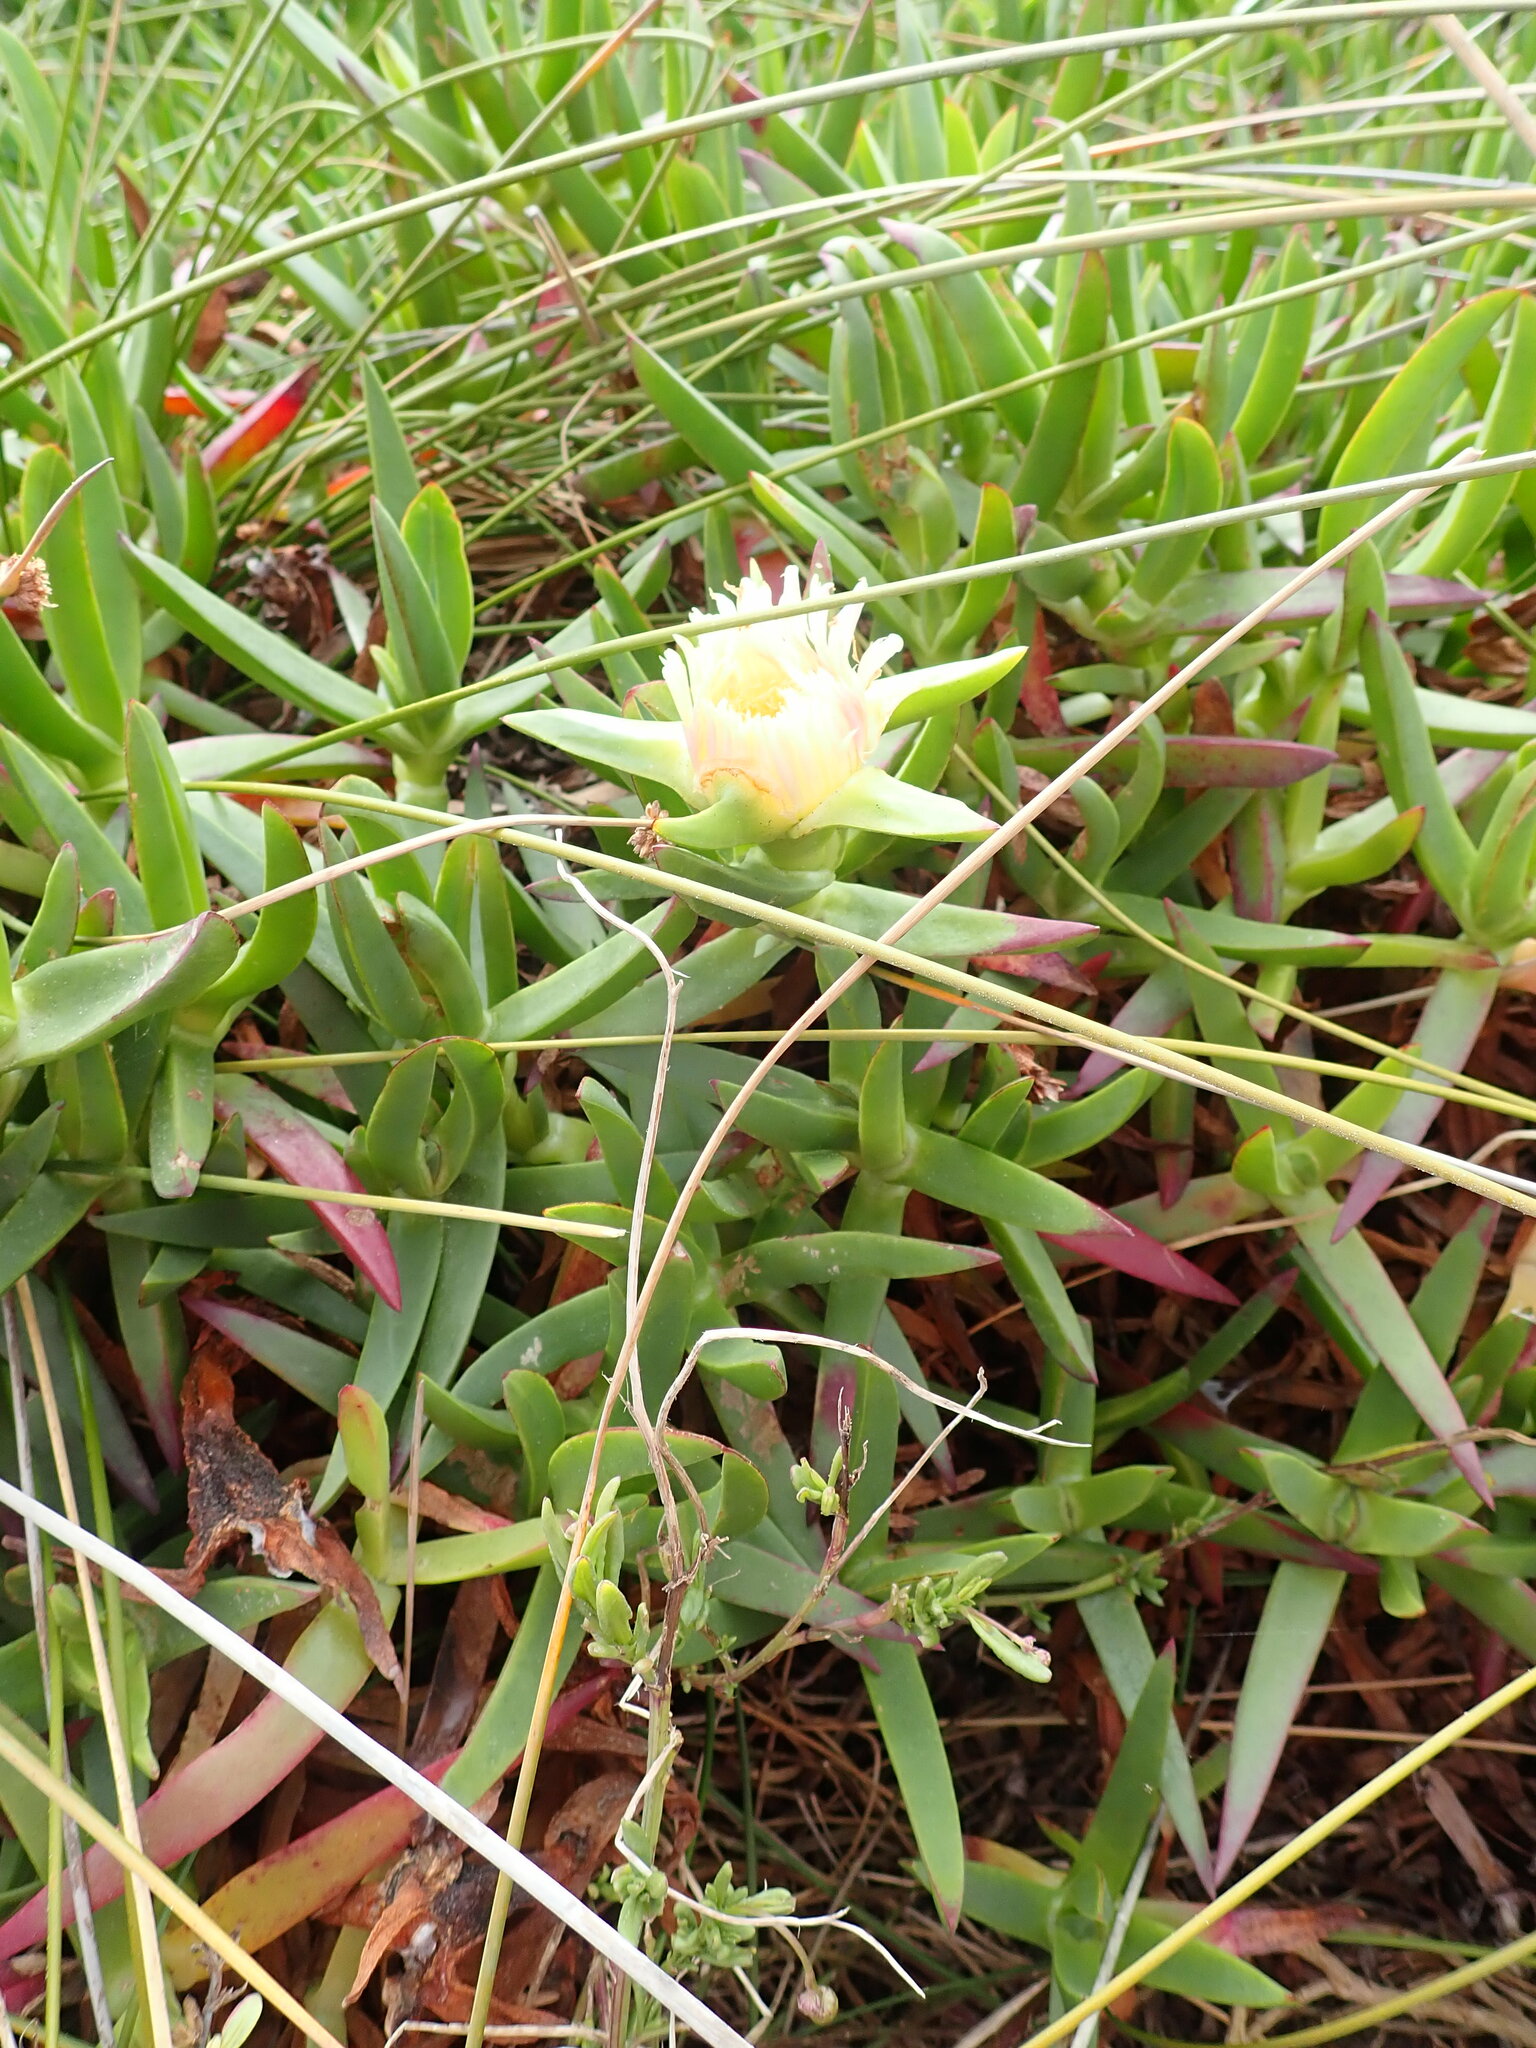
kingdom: Plantae
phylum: Tracheophyta
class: Magnoliopsida
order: Caryophyllales
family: Aizoaceae
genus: Carpobrotus
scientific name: Carpobrotus edulis
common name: Hottentot-fig
